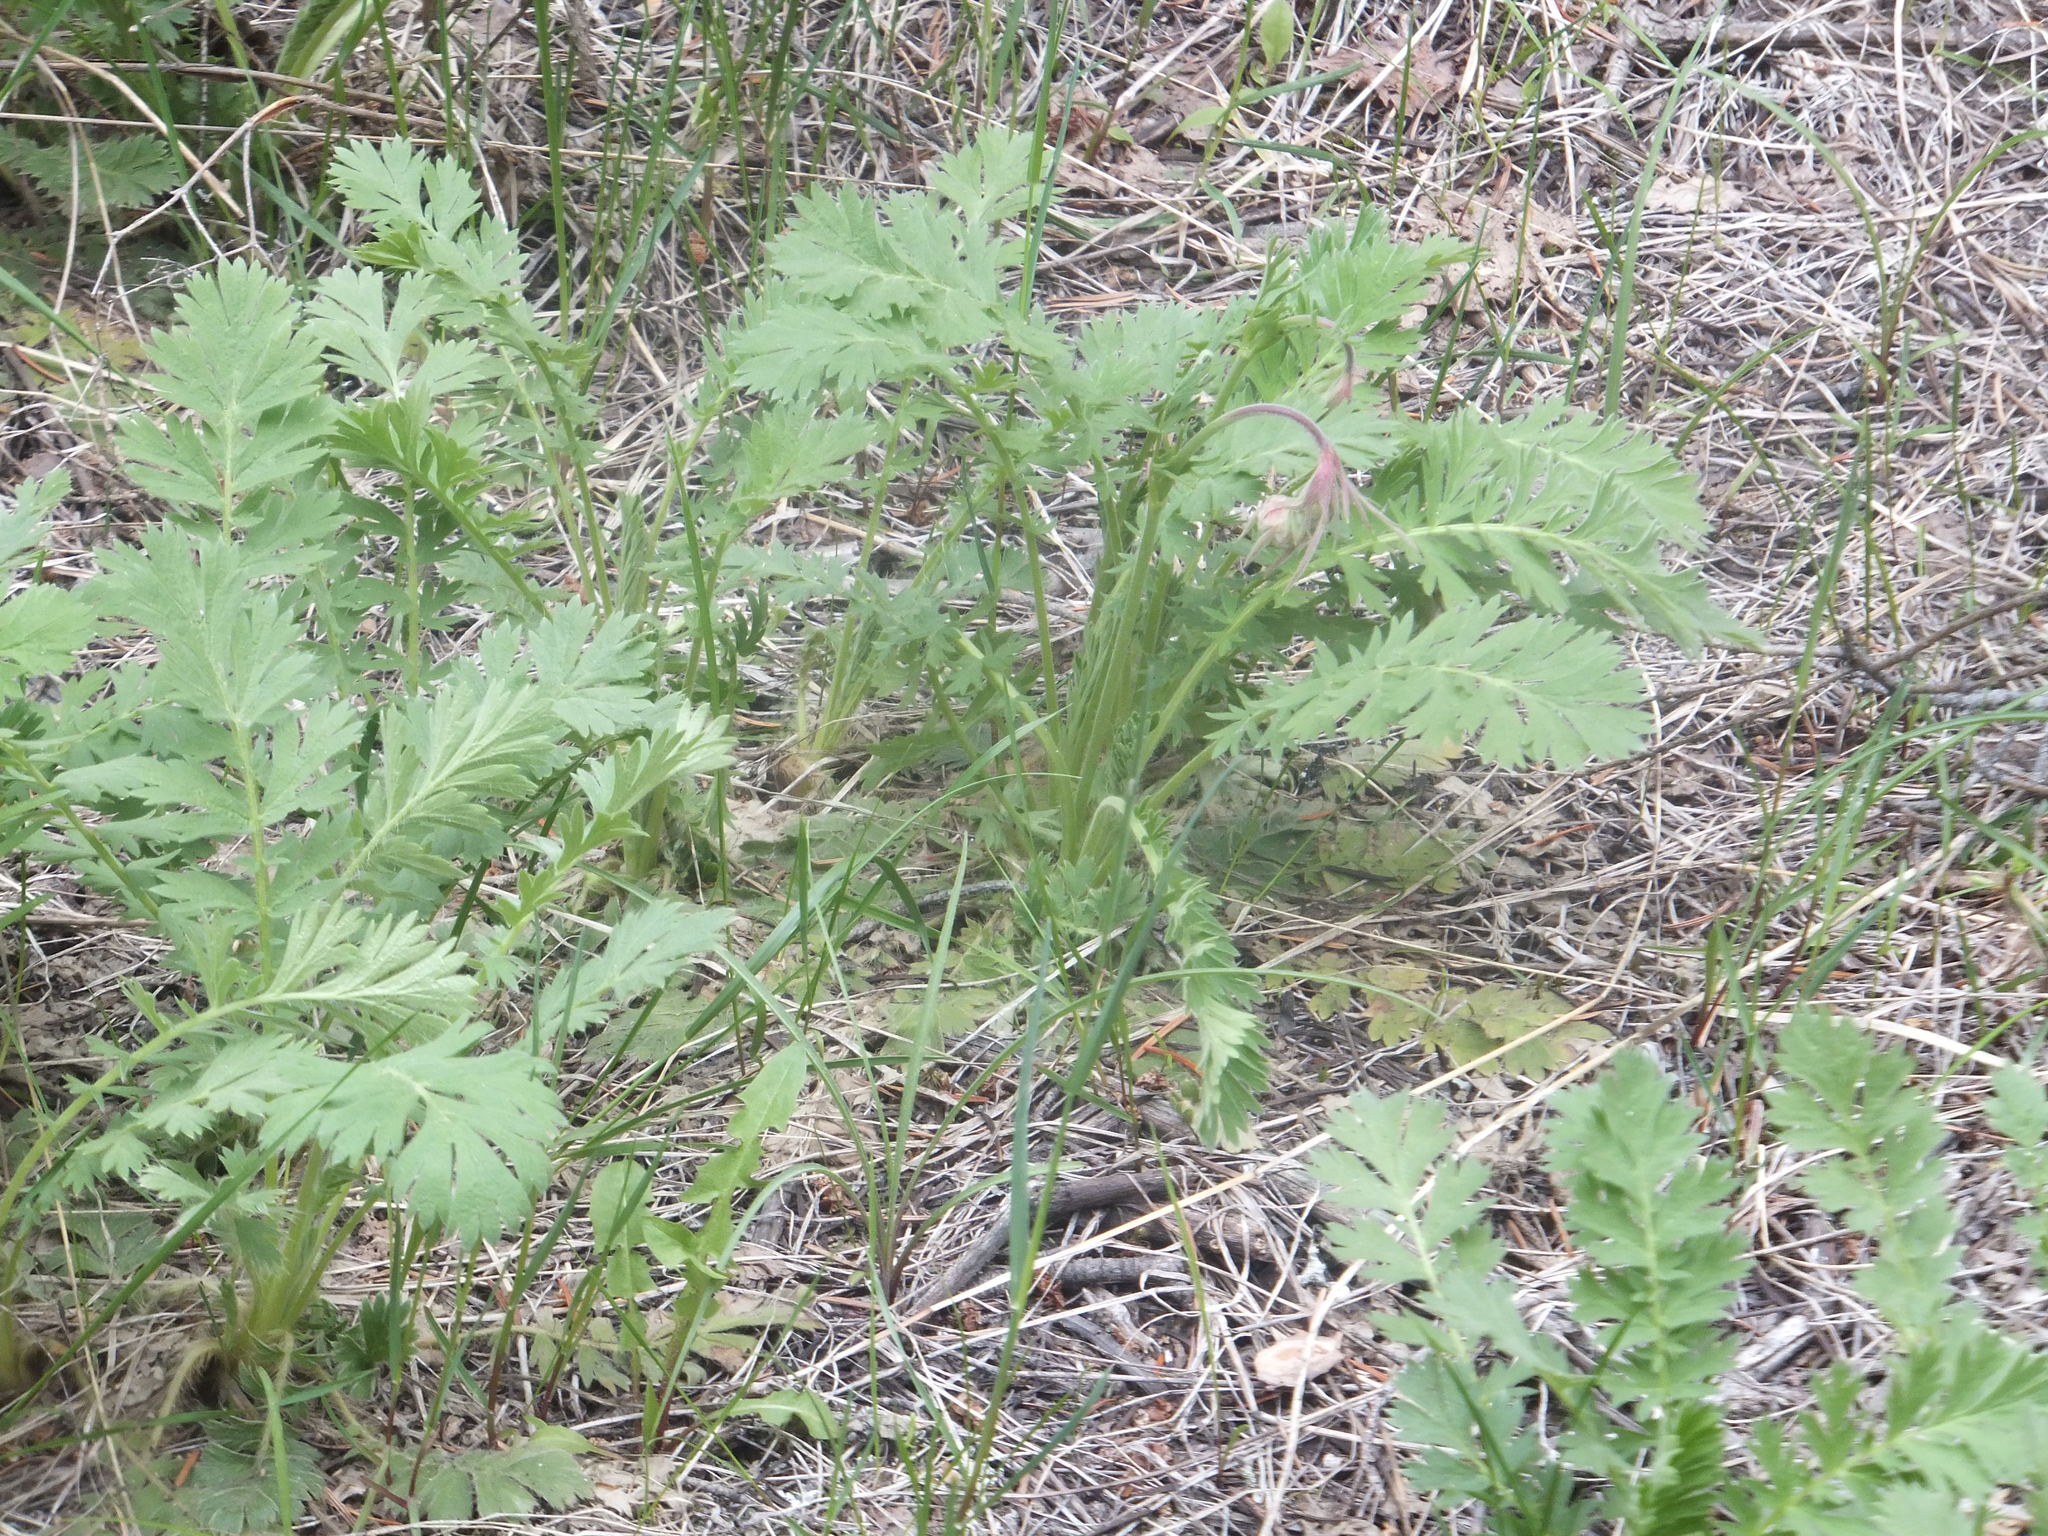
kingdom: Plantae
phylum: Tracheophyta
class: Magnoliopsida
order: Rosales
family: Rosaceae
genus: Geum
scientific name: Geum triflorum
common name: Old man's whiskers
